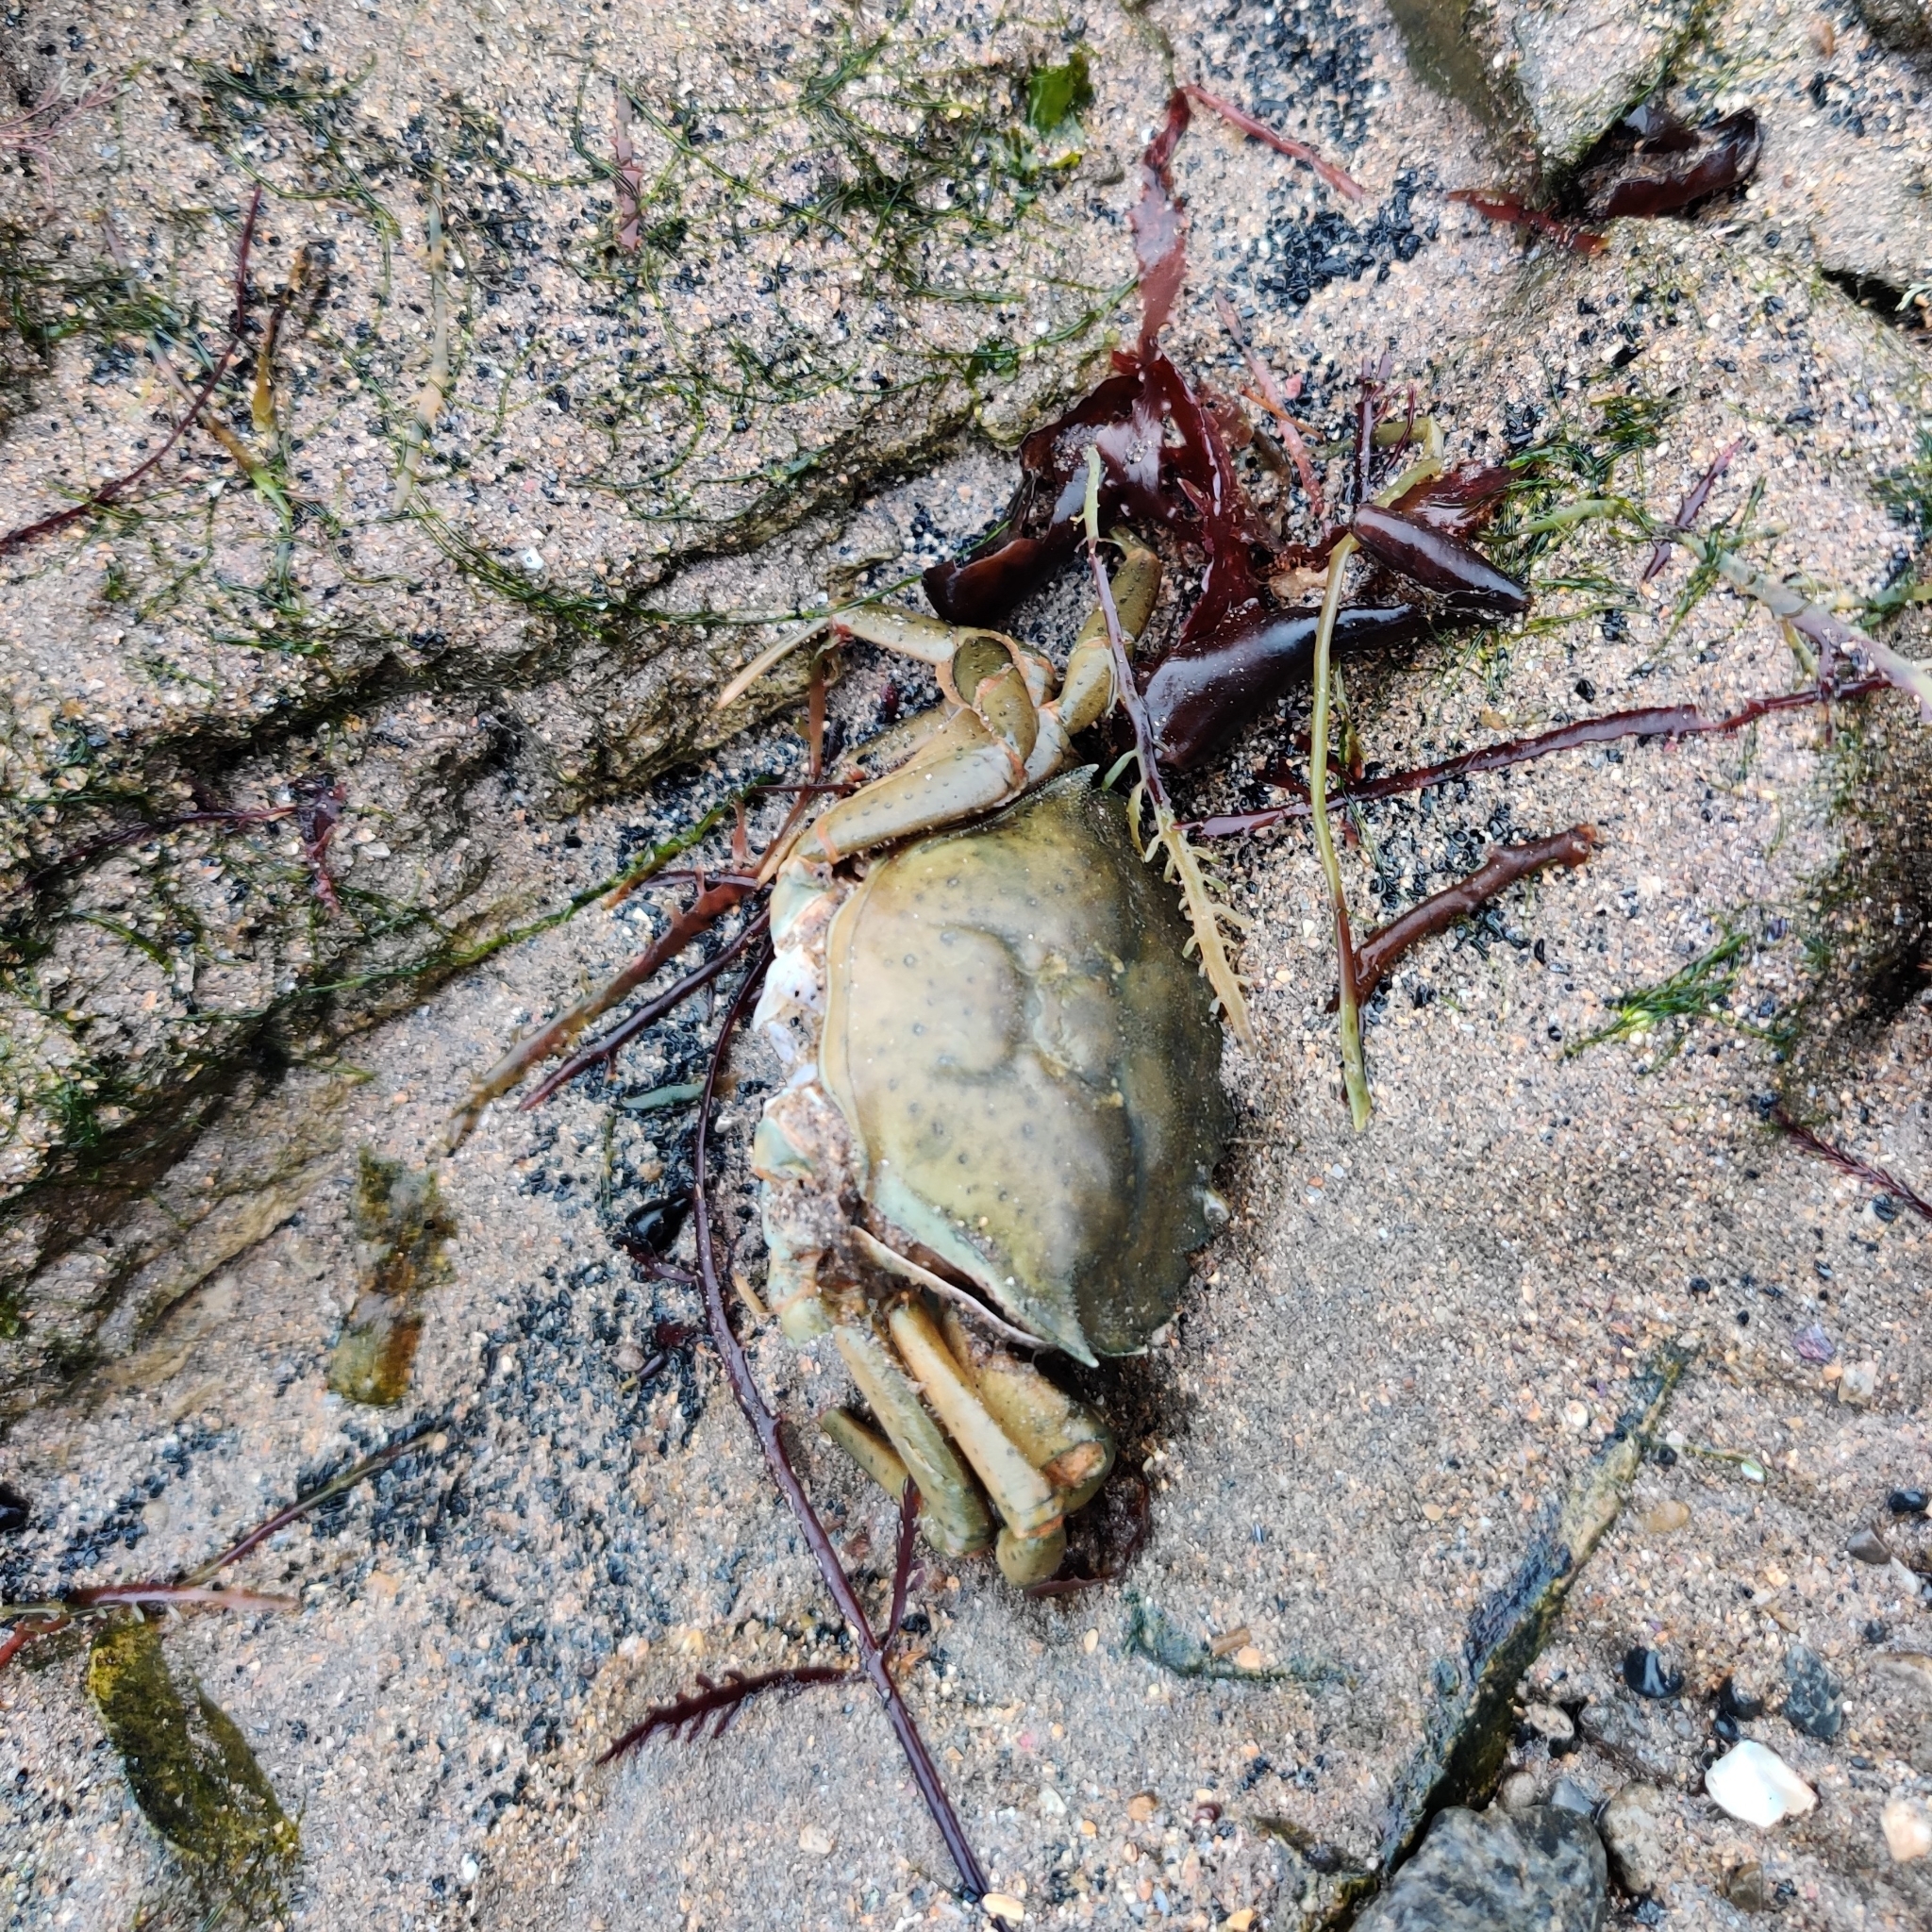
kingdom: Animalia
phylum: Arthropoda
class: Malacostraca
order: Decapoda
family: Carcinidae
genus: Carcinus
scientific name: Carcinus maenas
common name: European green crab
